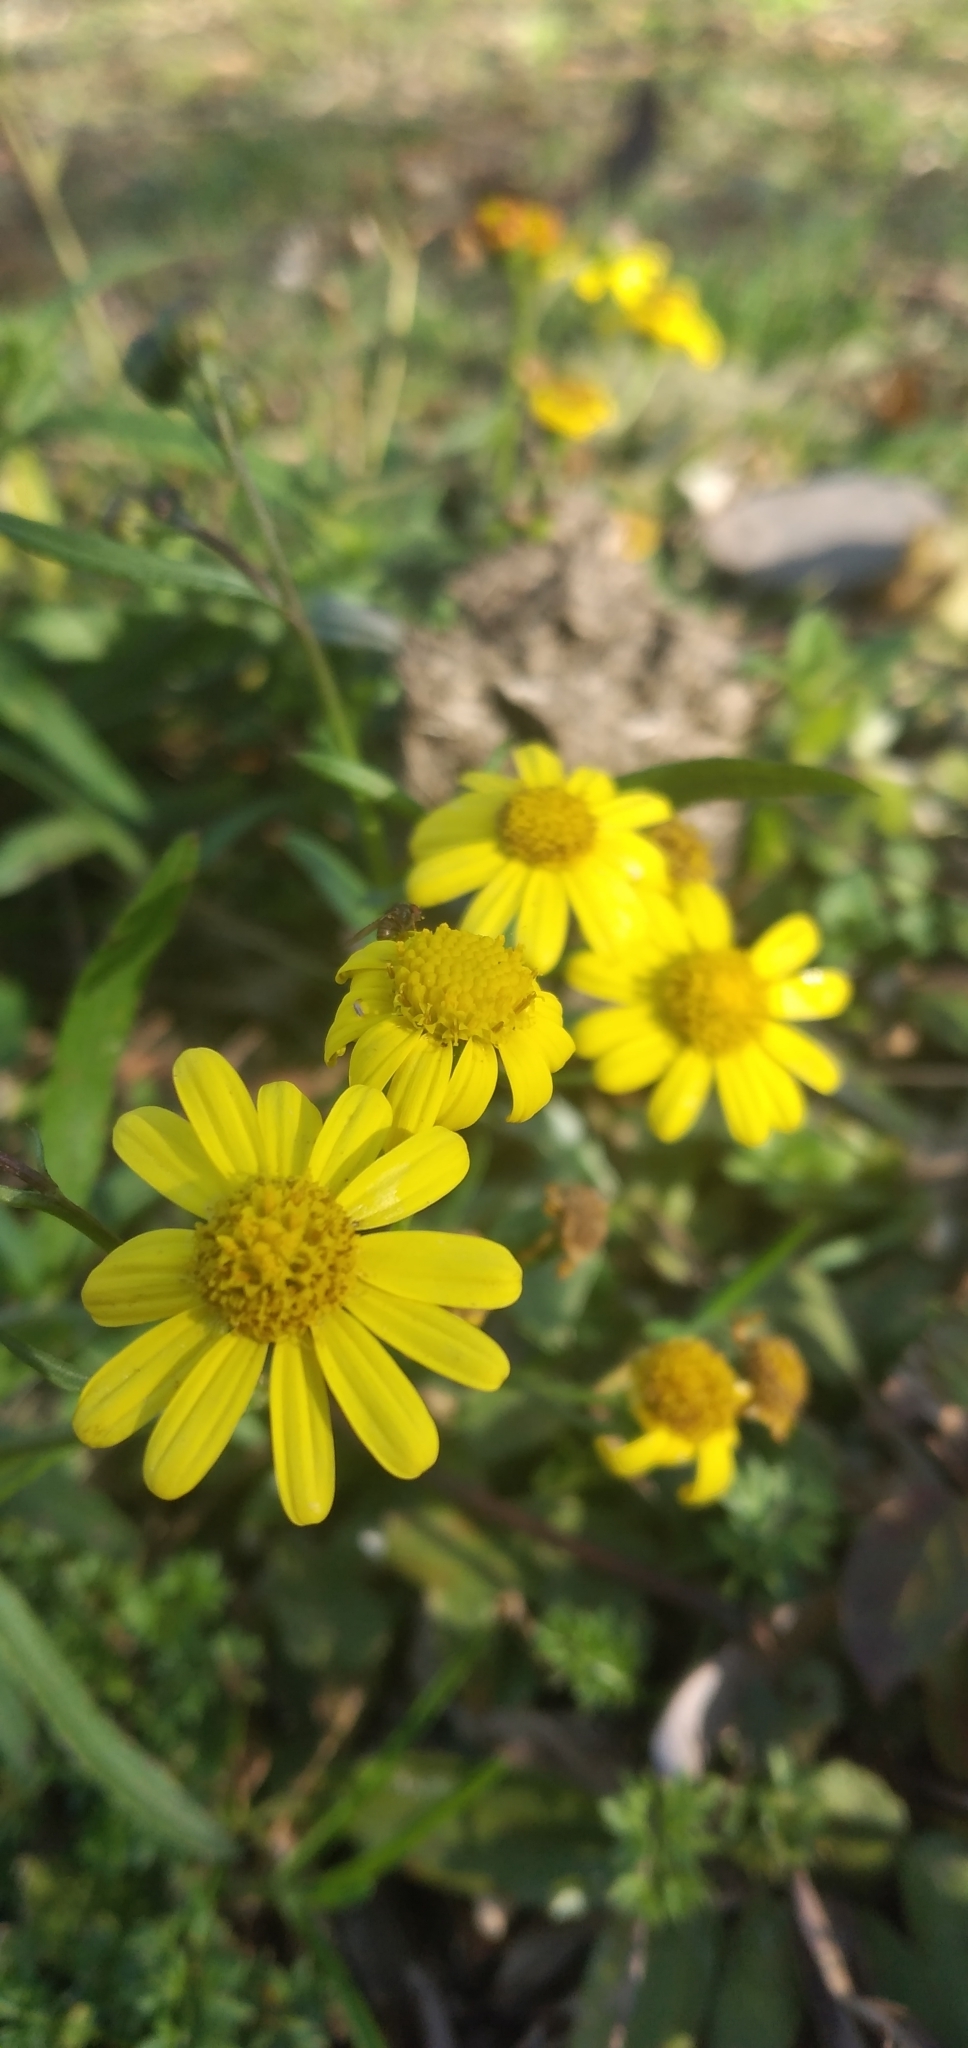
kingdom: Plantae
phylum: Tracheophyta
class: Magnoliopsida
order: Asterales
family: Asteraceae
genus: Senecio
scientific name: Senecio madagascariensis
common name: Madagascar ragwort
